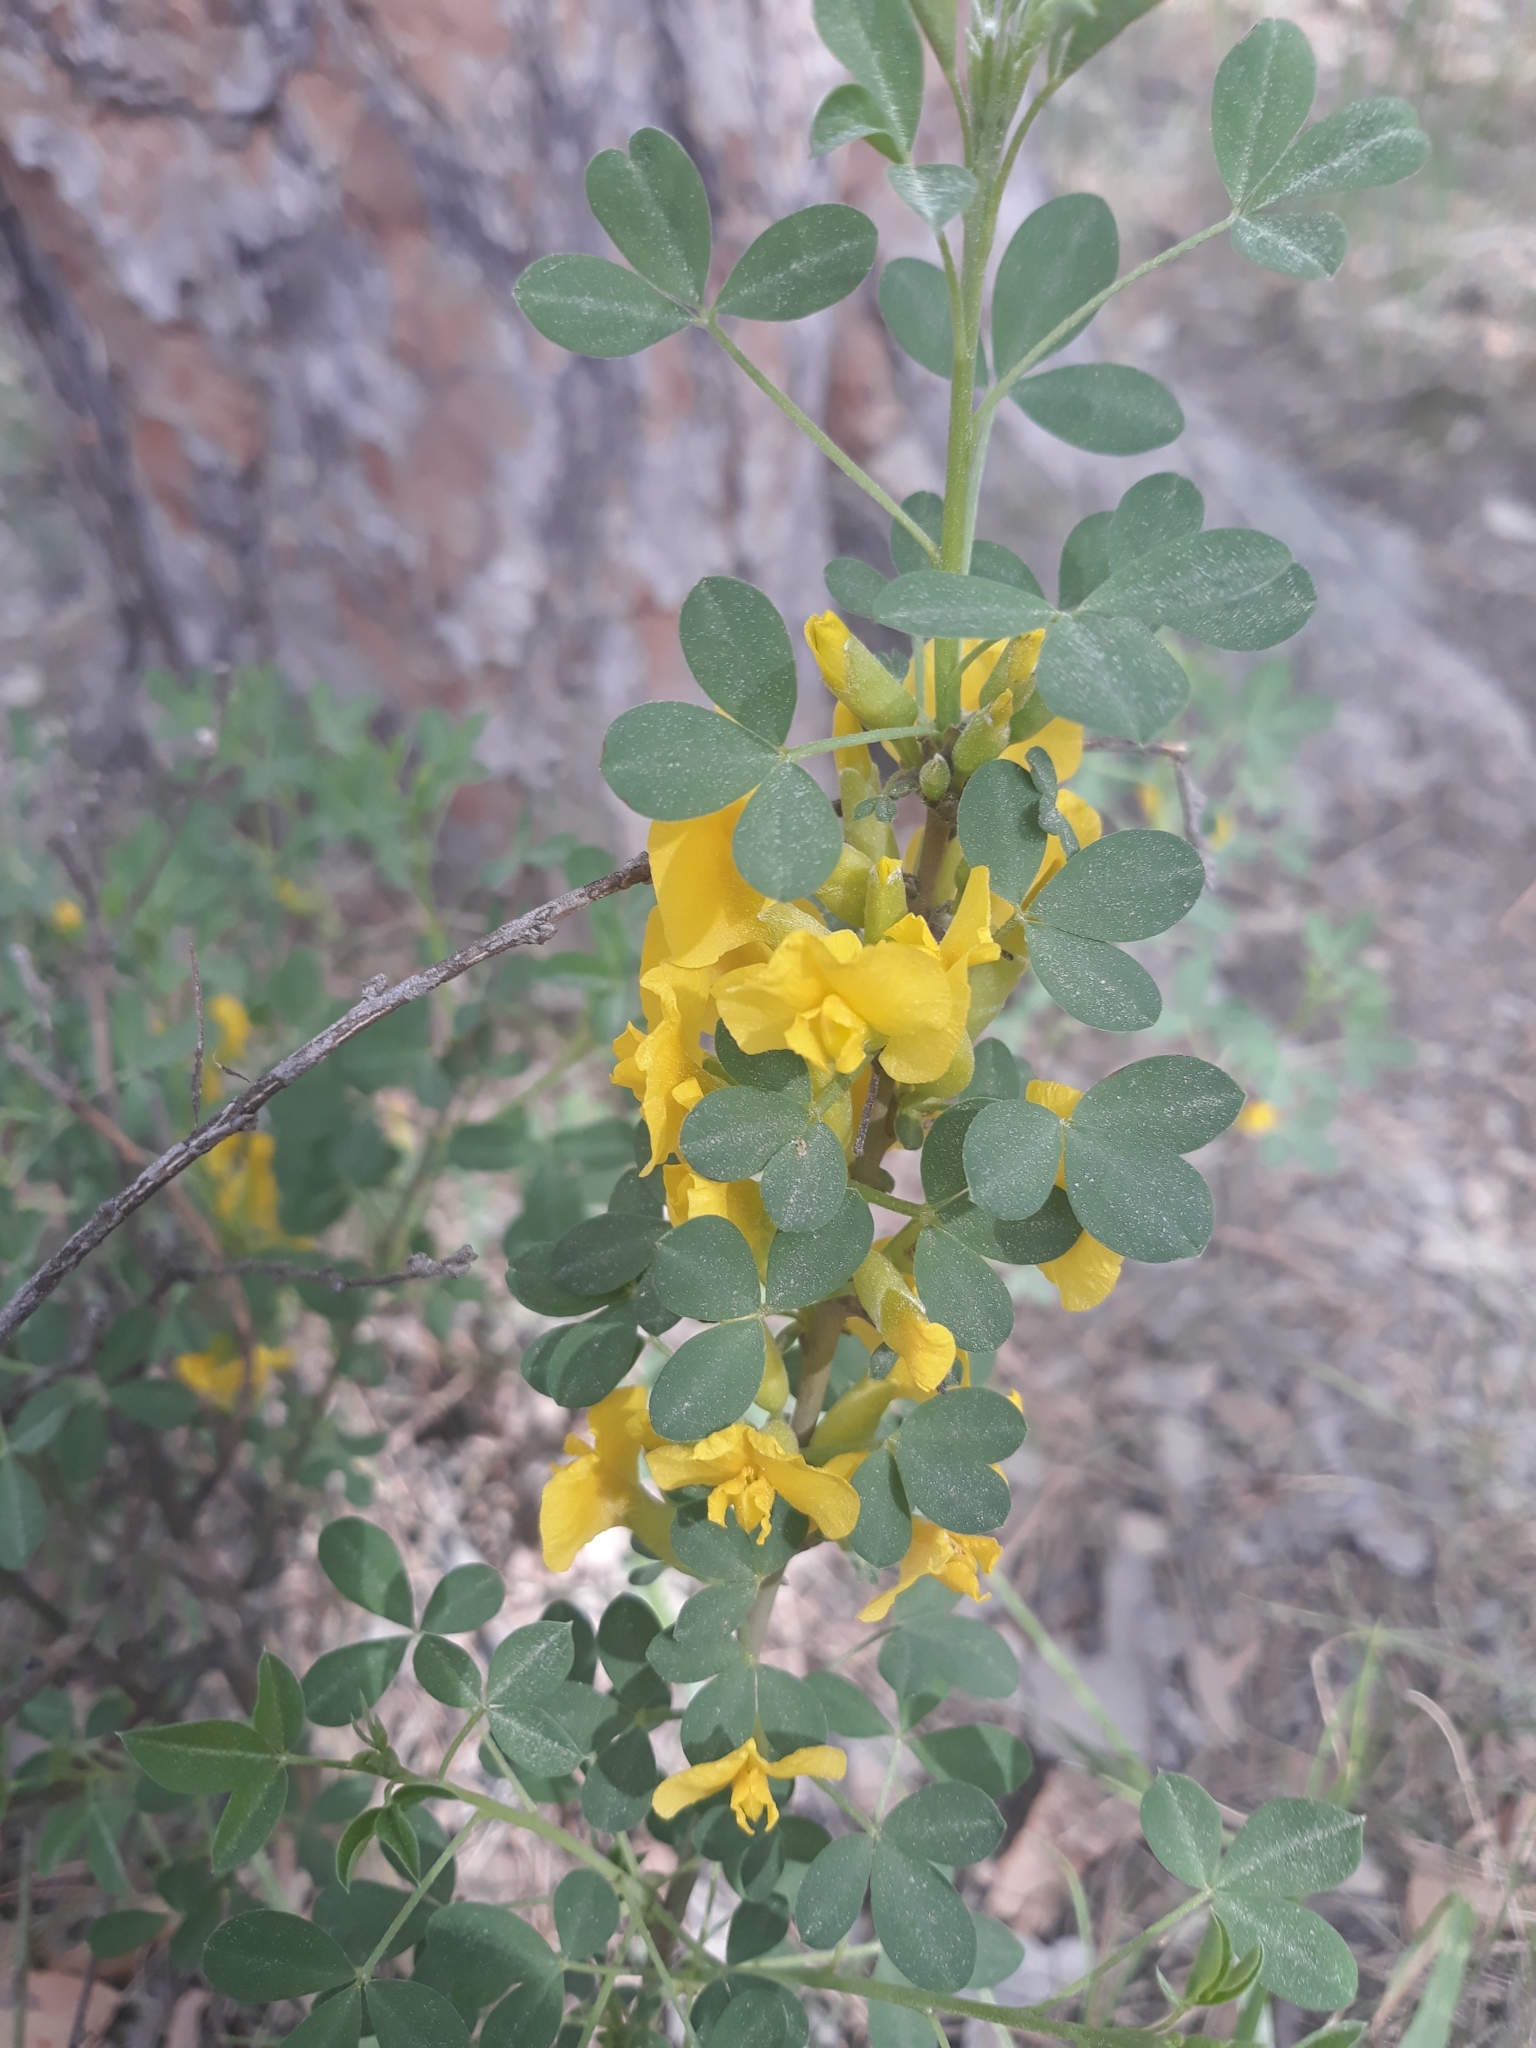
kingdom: Plantae
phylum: Tracheophyta
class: Magnoliopsida
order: Fabales
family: Fabaceae
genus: Chamaecytisus
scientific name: Chamaecytisus ruthenicus
